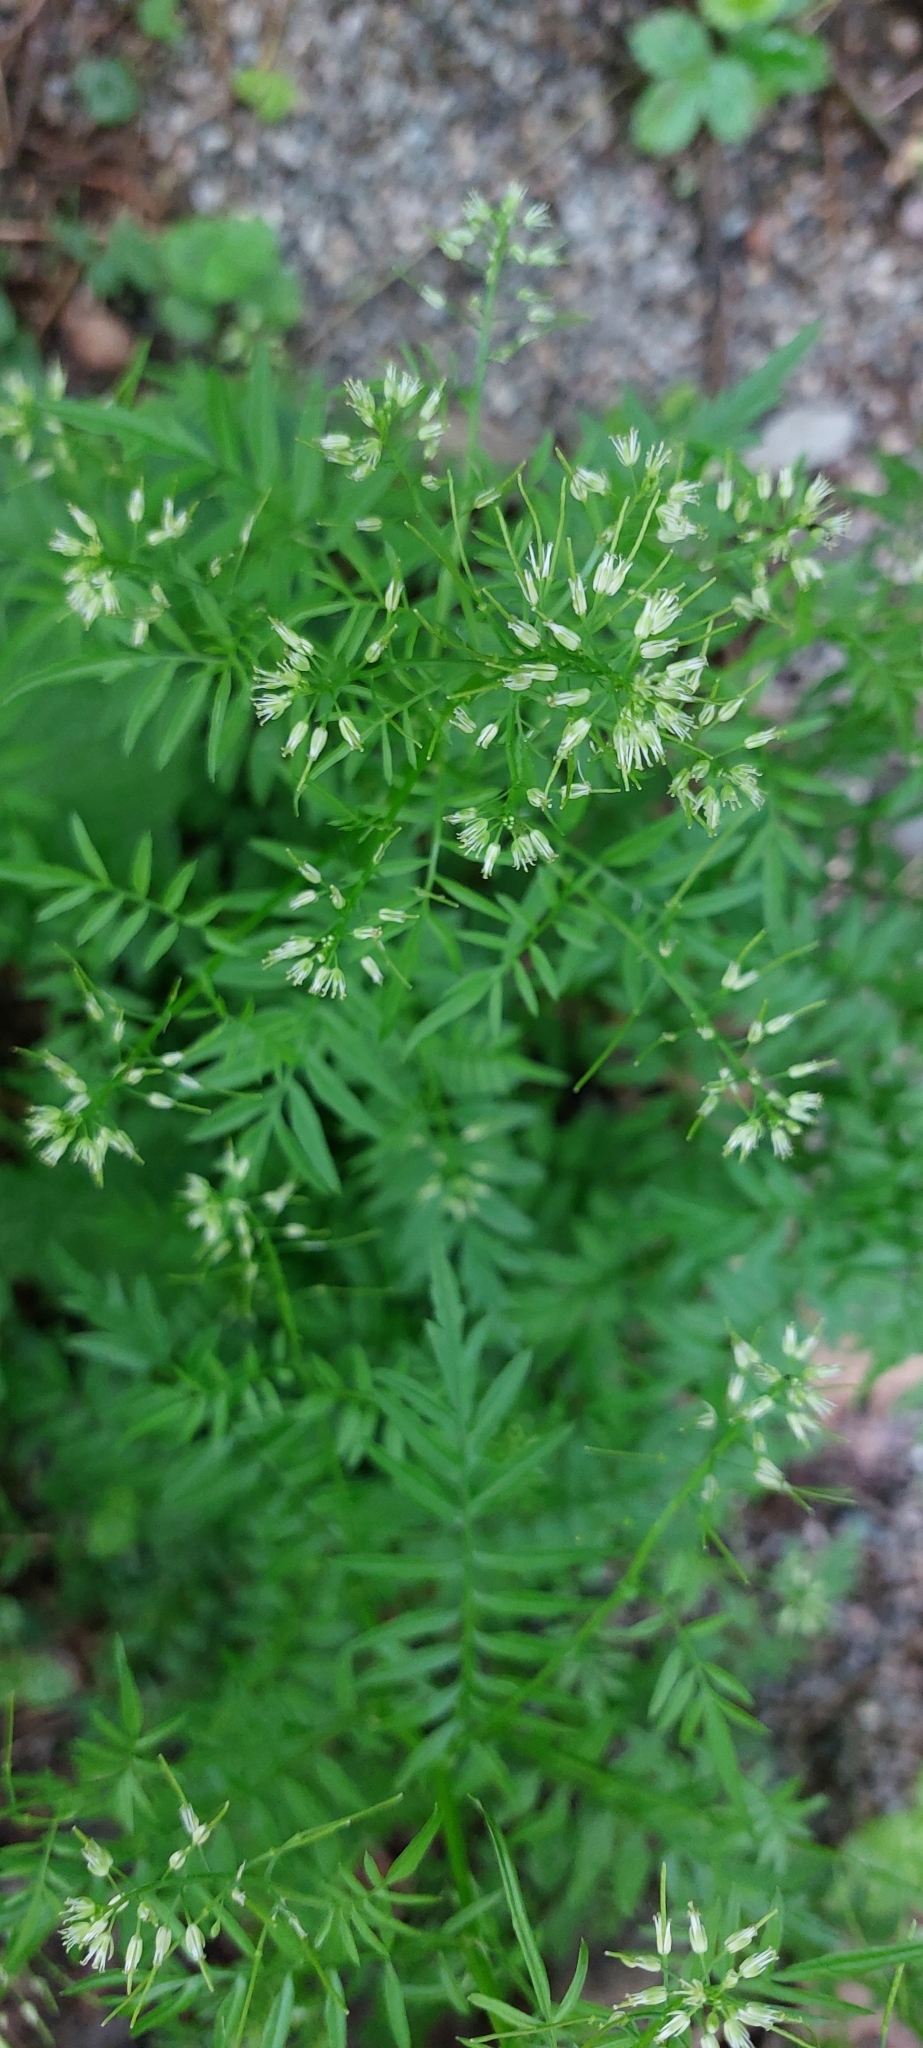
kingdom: Plantae
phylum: Tracheophyta
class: Magnoliopsida
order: Brassicales
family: Brassicaceae
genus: Cardamine
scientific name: Cardamine impatiens
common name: Narrow-leaved bitter-cress
